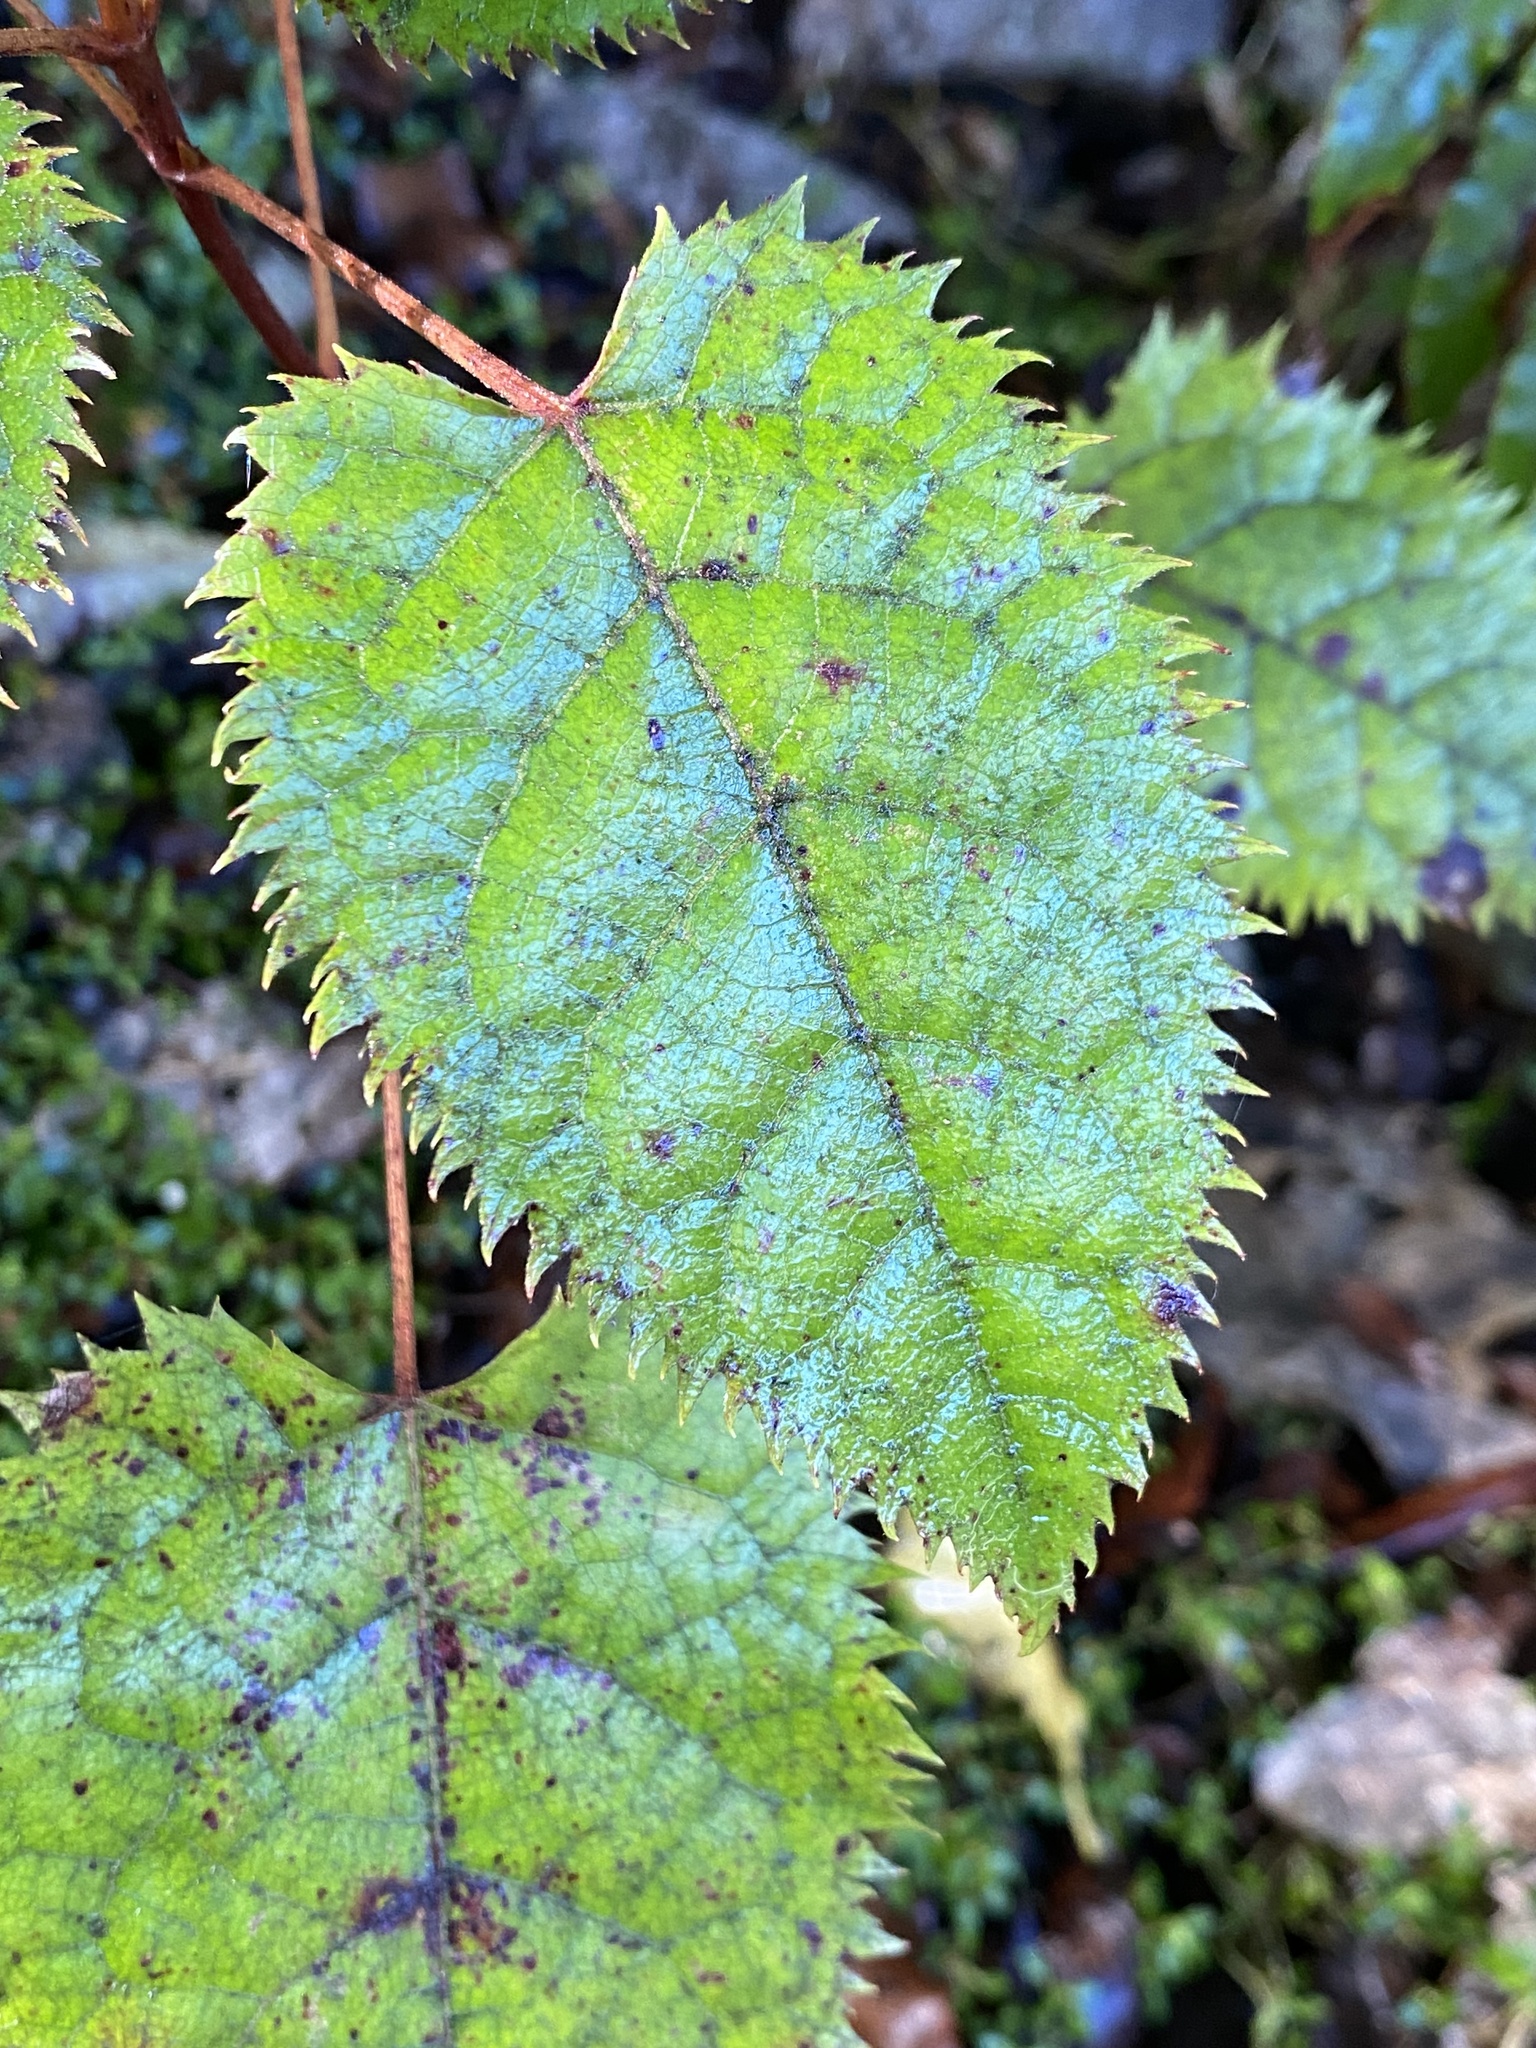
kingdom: Plantae
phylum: Tracheophyta
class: Magnoliopsida
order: Oxalidales
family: Elaeocarpaceae
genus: Aristotelia
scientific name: Aristotelia serrata
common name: New zealand wineberry
